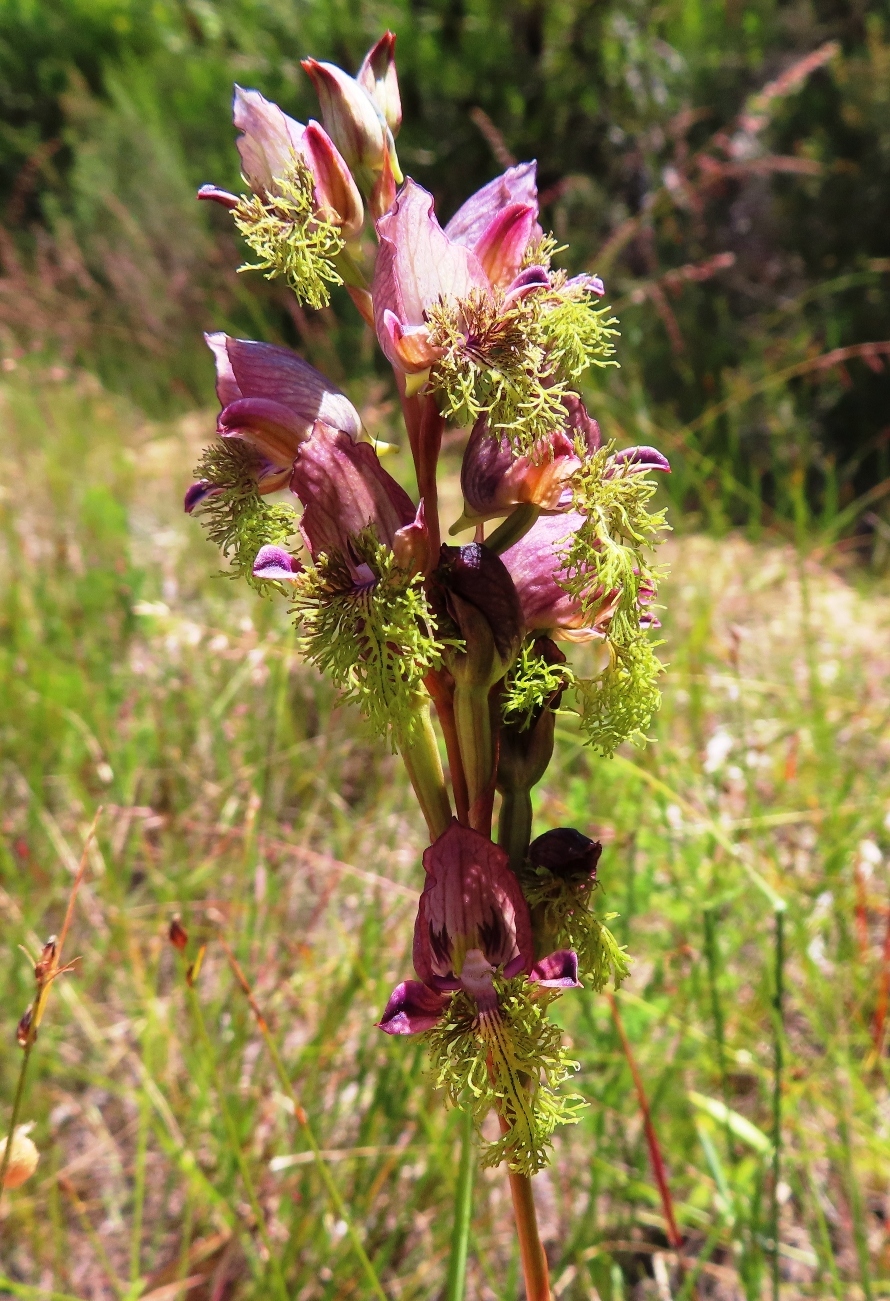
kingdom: Plantae
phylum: Tracheophyta
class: Liliopsida
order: Asparagales
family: Orchidaceae
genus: Disa
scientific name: Disa lugens
